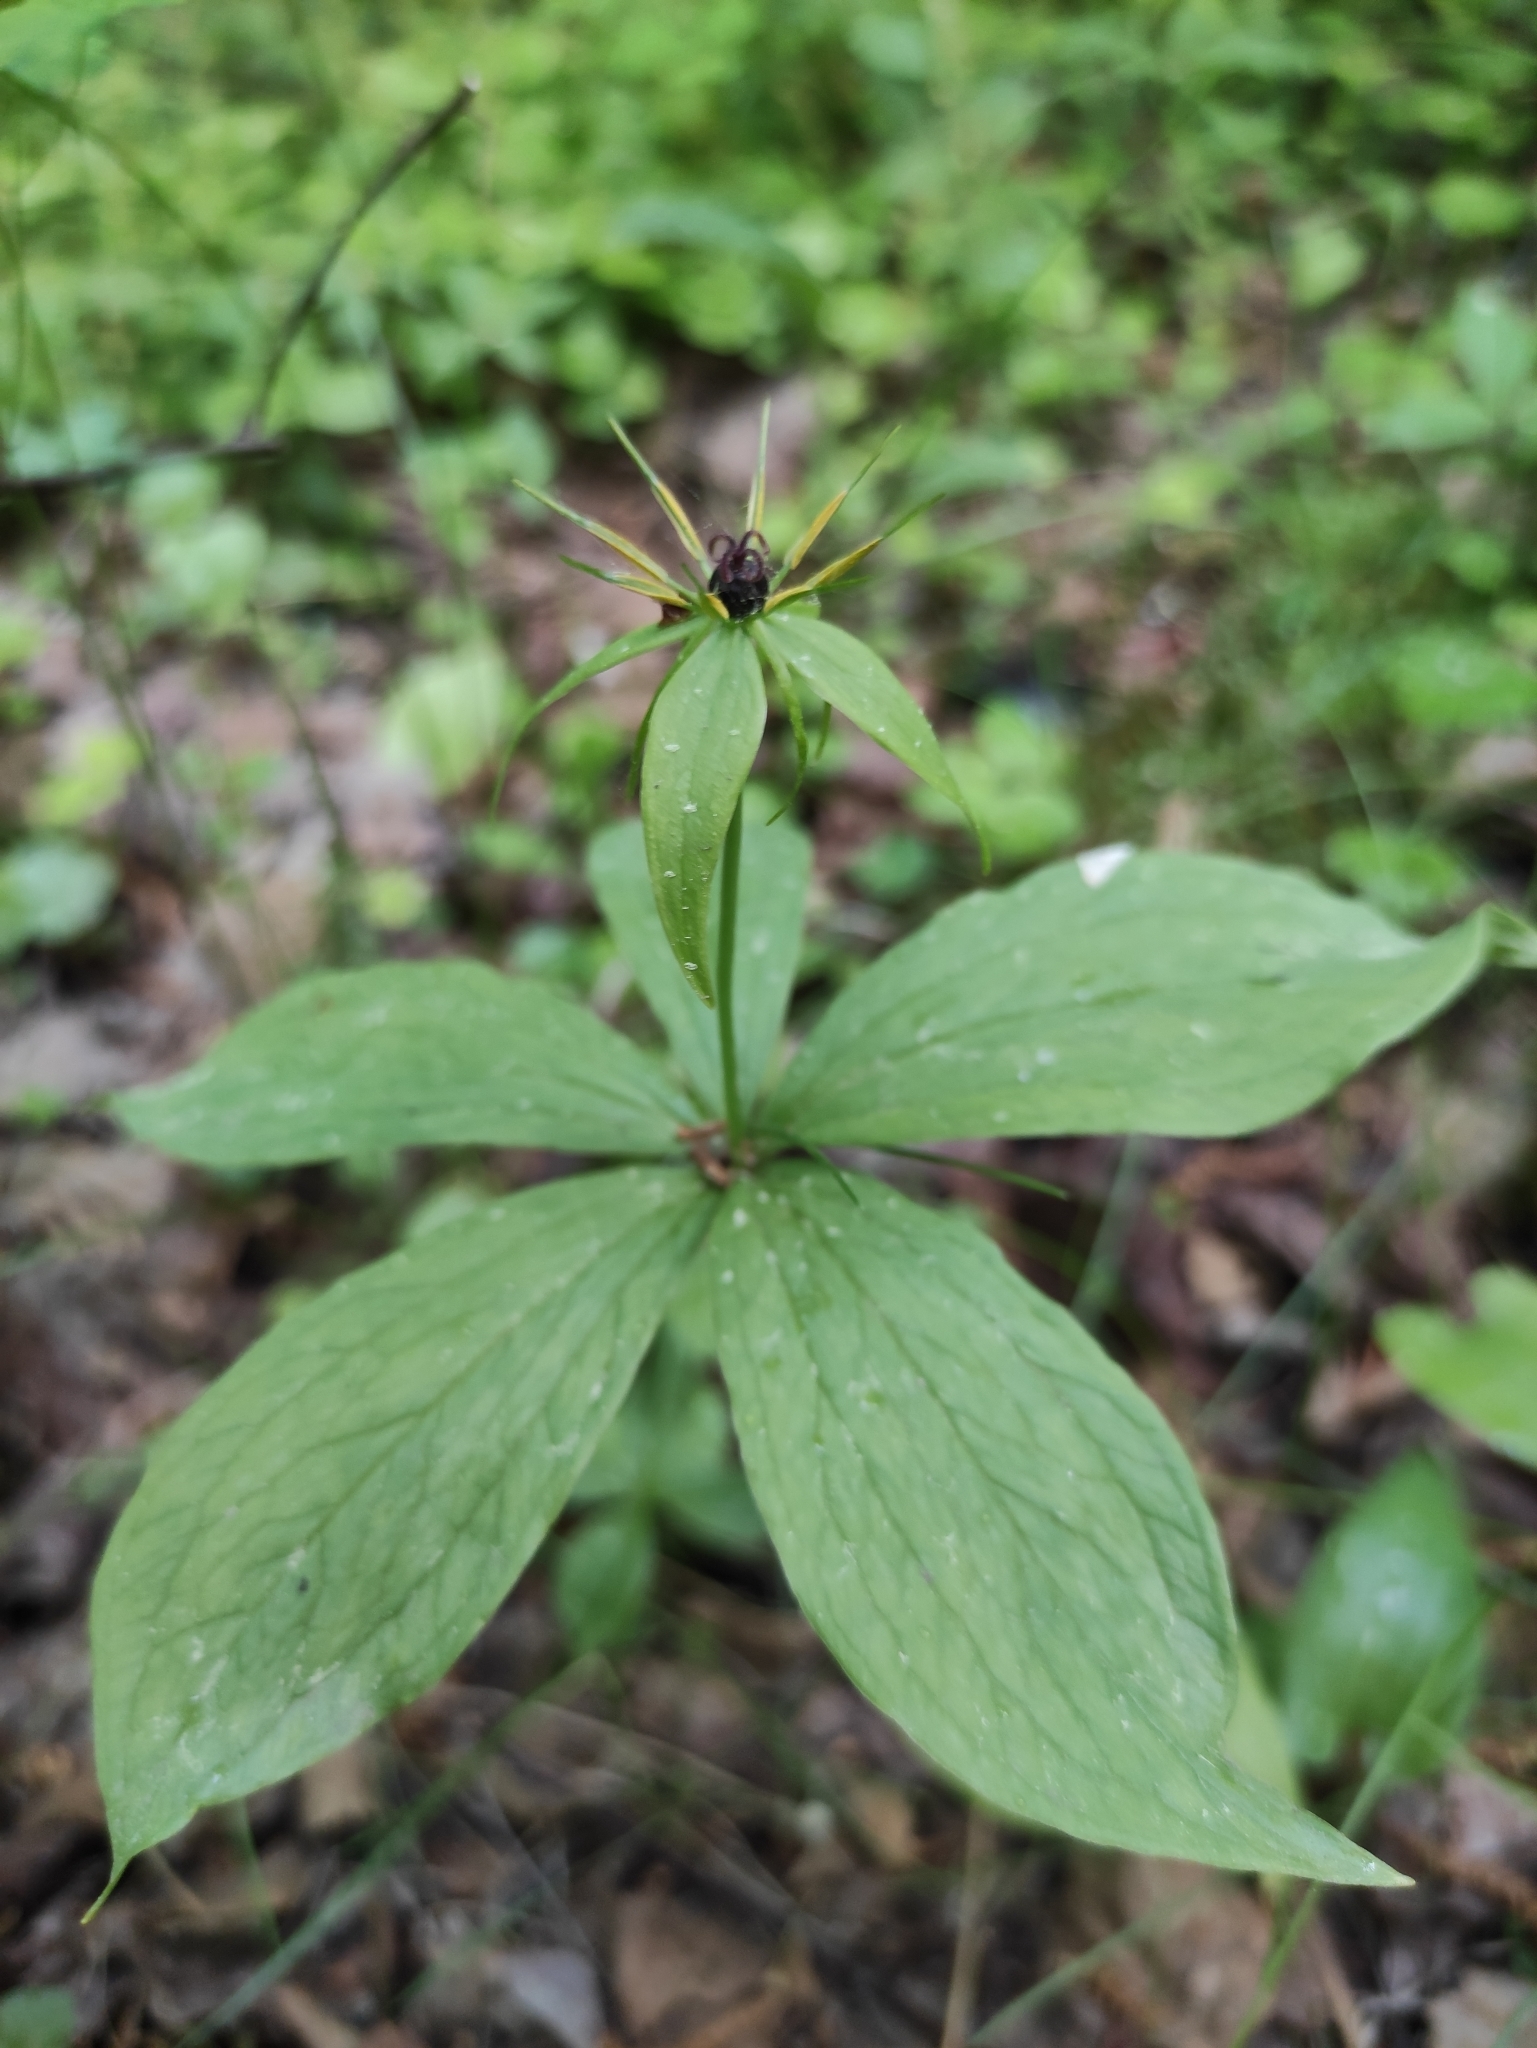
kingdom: Plantae
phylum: Tracheophyta
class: Liliopsida
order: Liliales
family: Melanthiaceae
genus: Paris
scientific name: Paris verticillata
